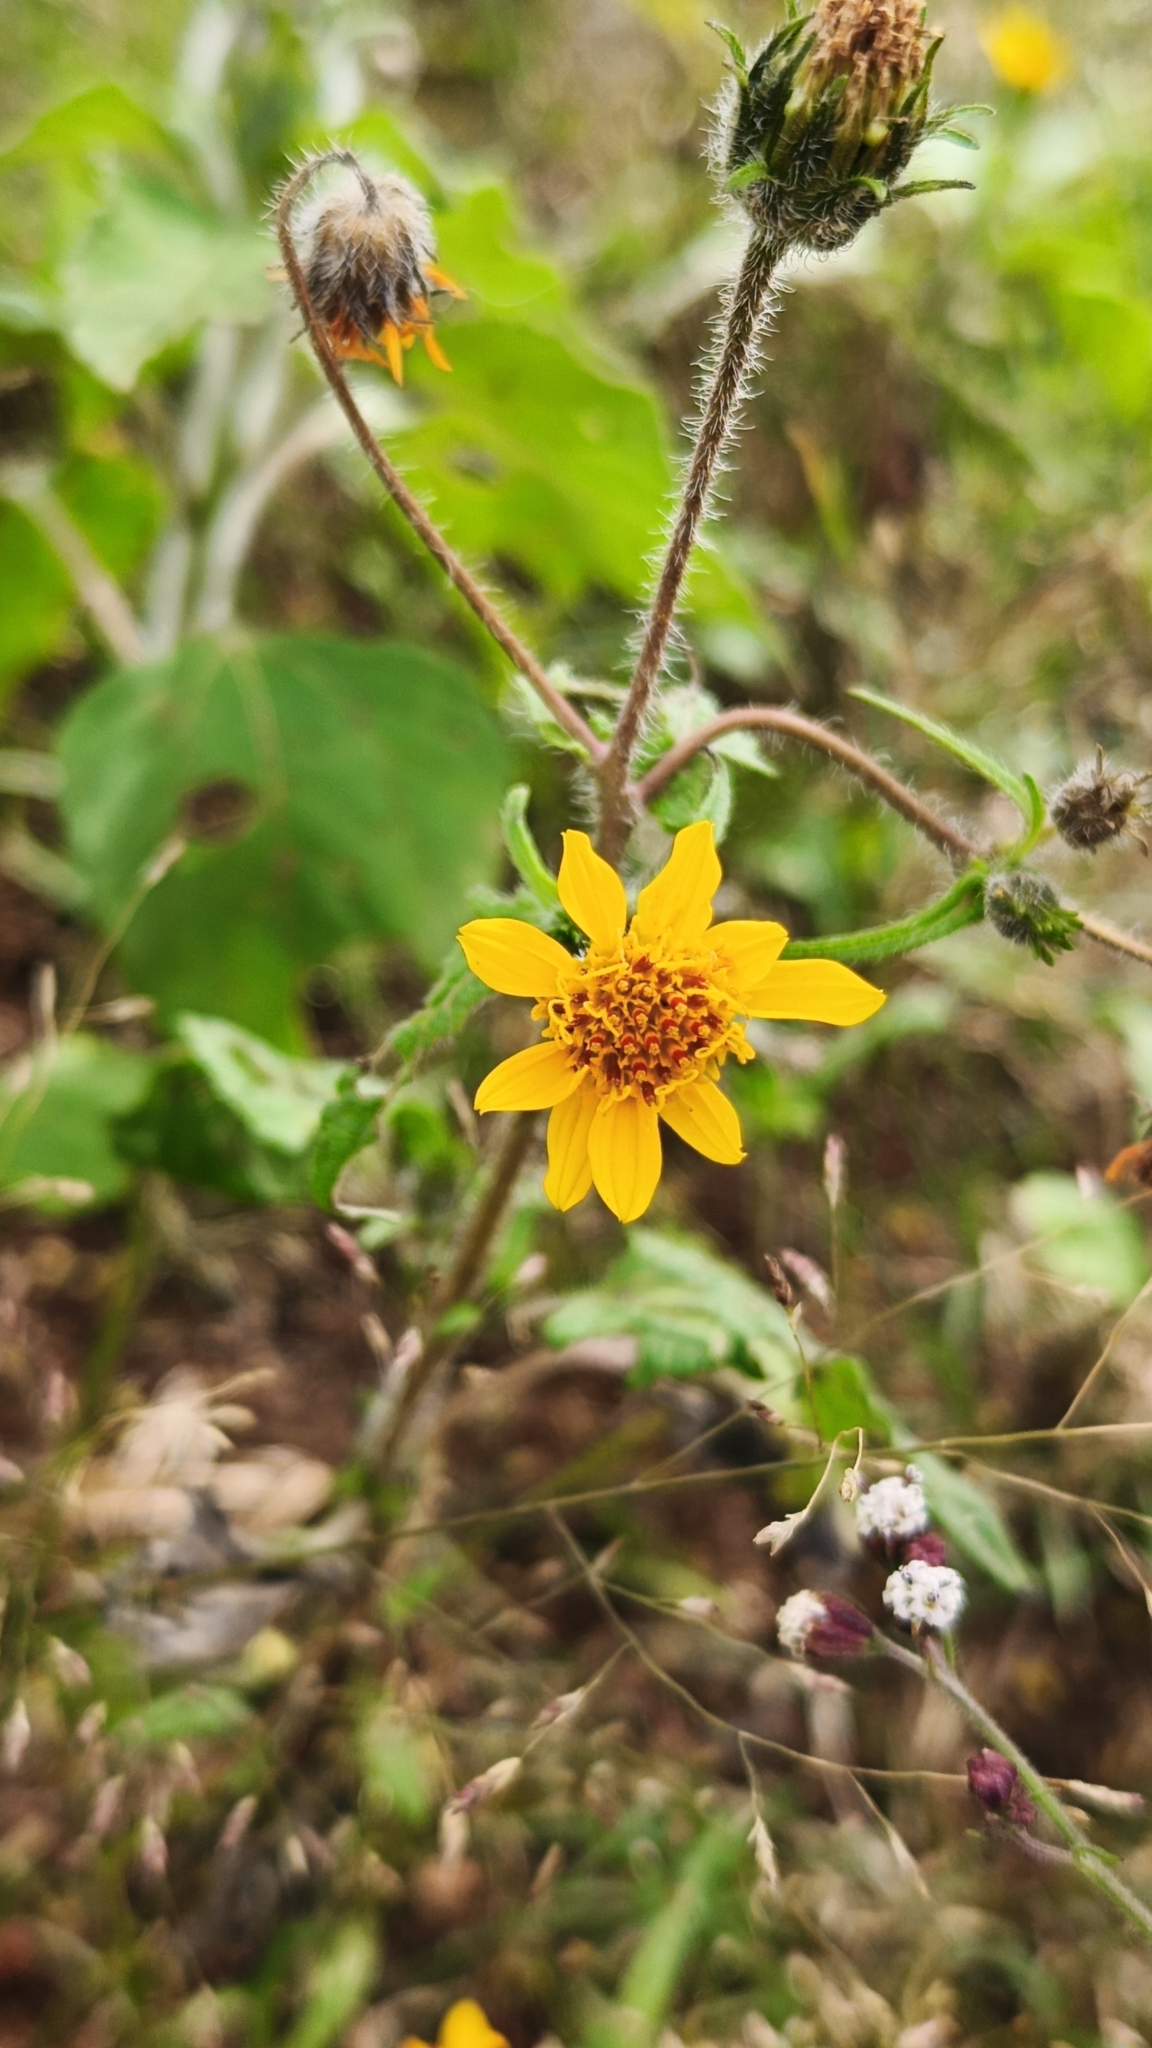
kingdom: Plantae
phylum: Tracheophyta
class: Magnoliopsida
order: Asterales
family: Asteraceae
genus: Simsia
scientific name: Simsia amplexicaulis
